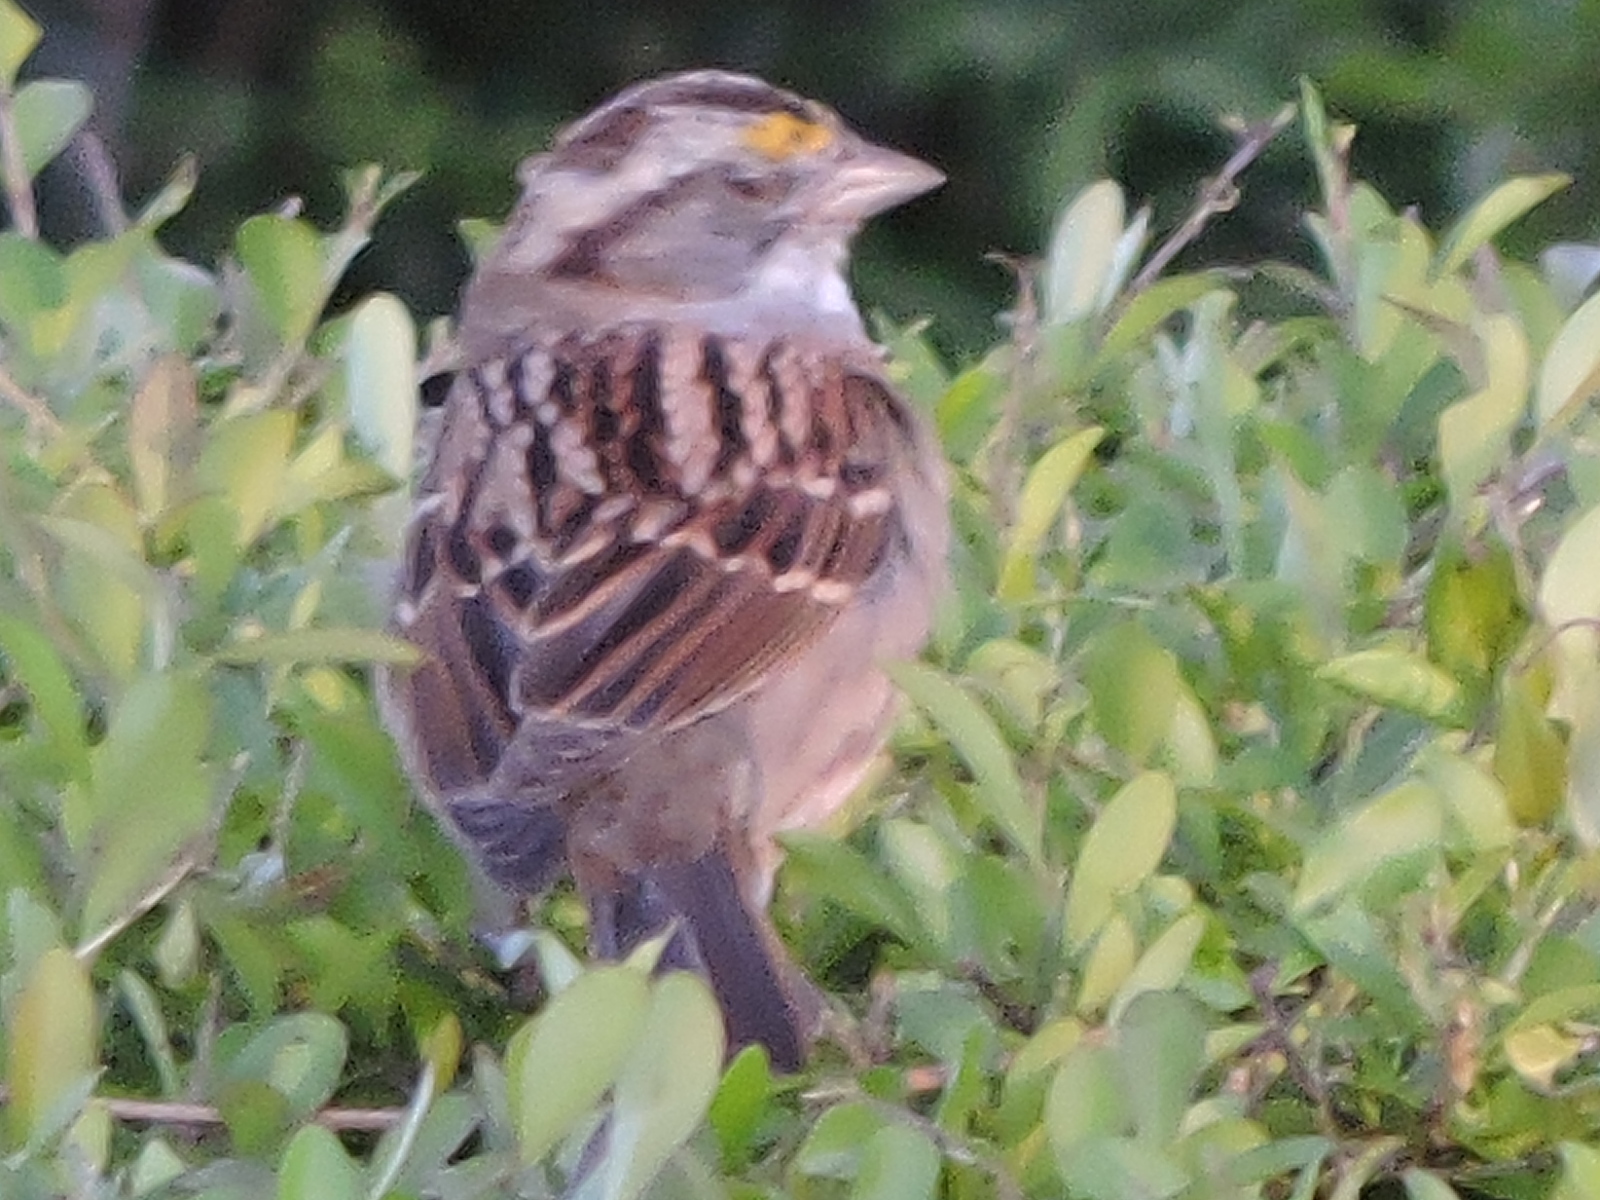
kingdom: Animalia
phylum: Chordata
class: Aves
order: Passeriformes
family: Passerellidae
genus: Zonotrichia
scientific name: Zonotrichia albicollis
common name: White-throated sparrow
